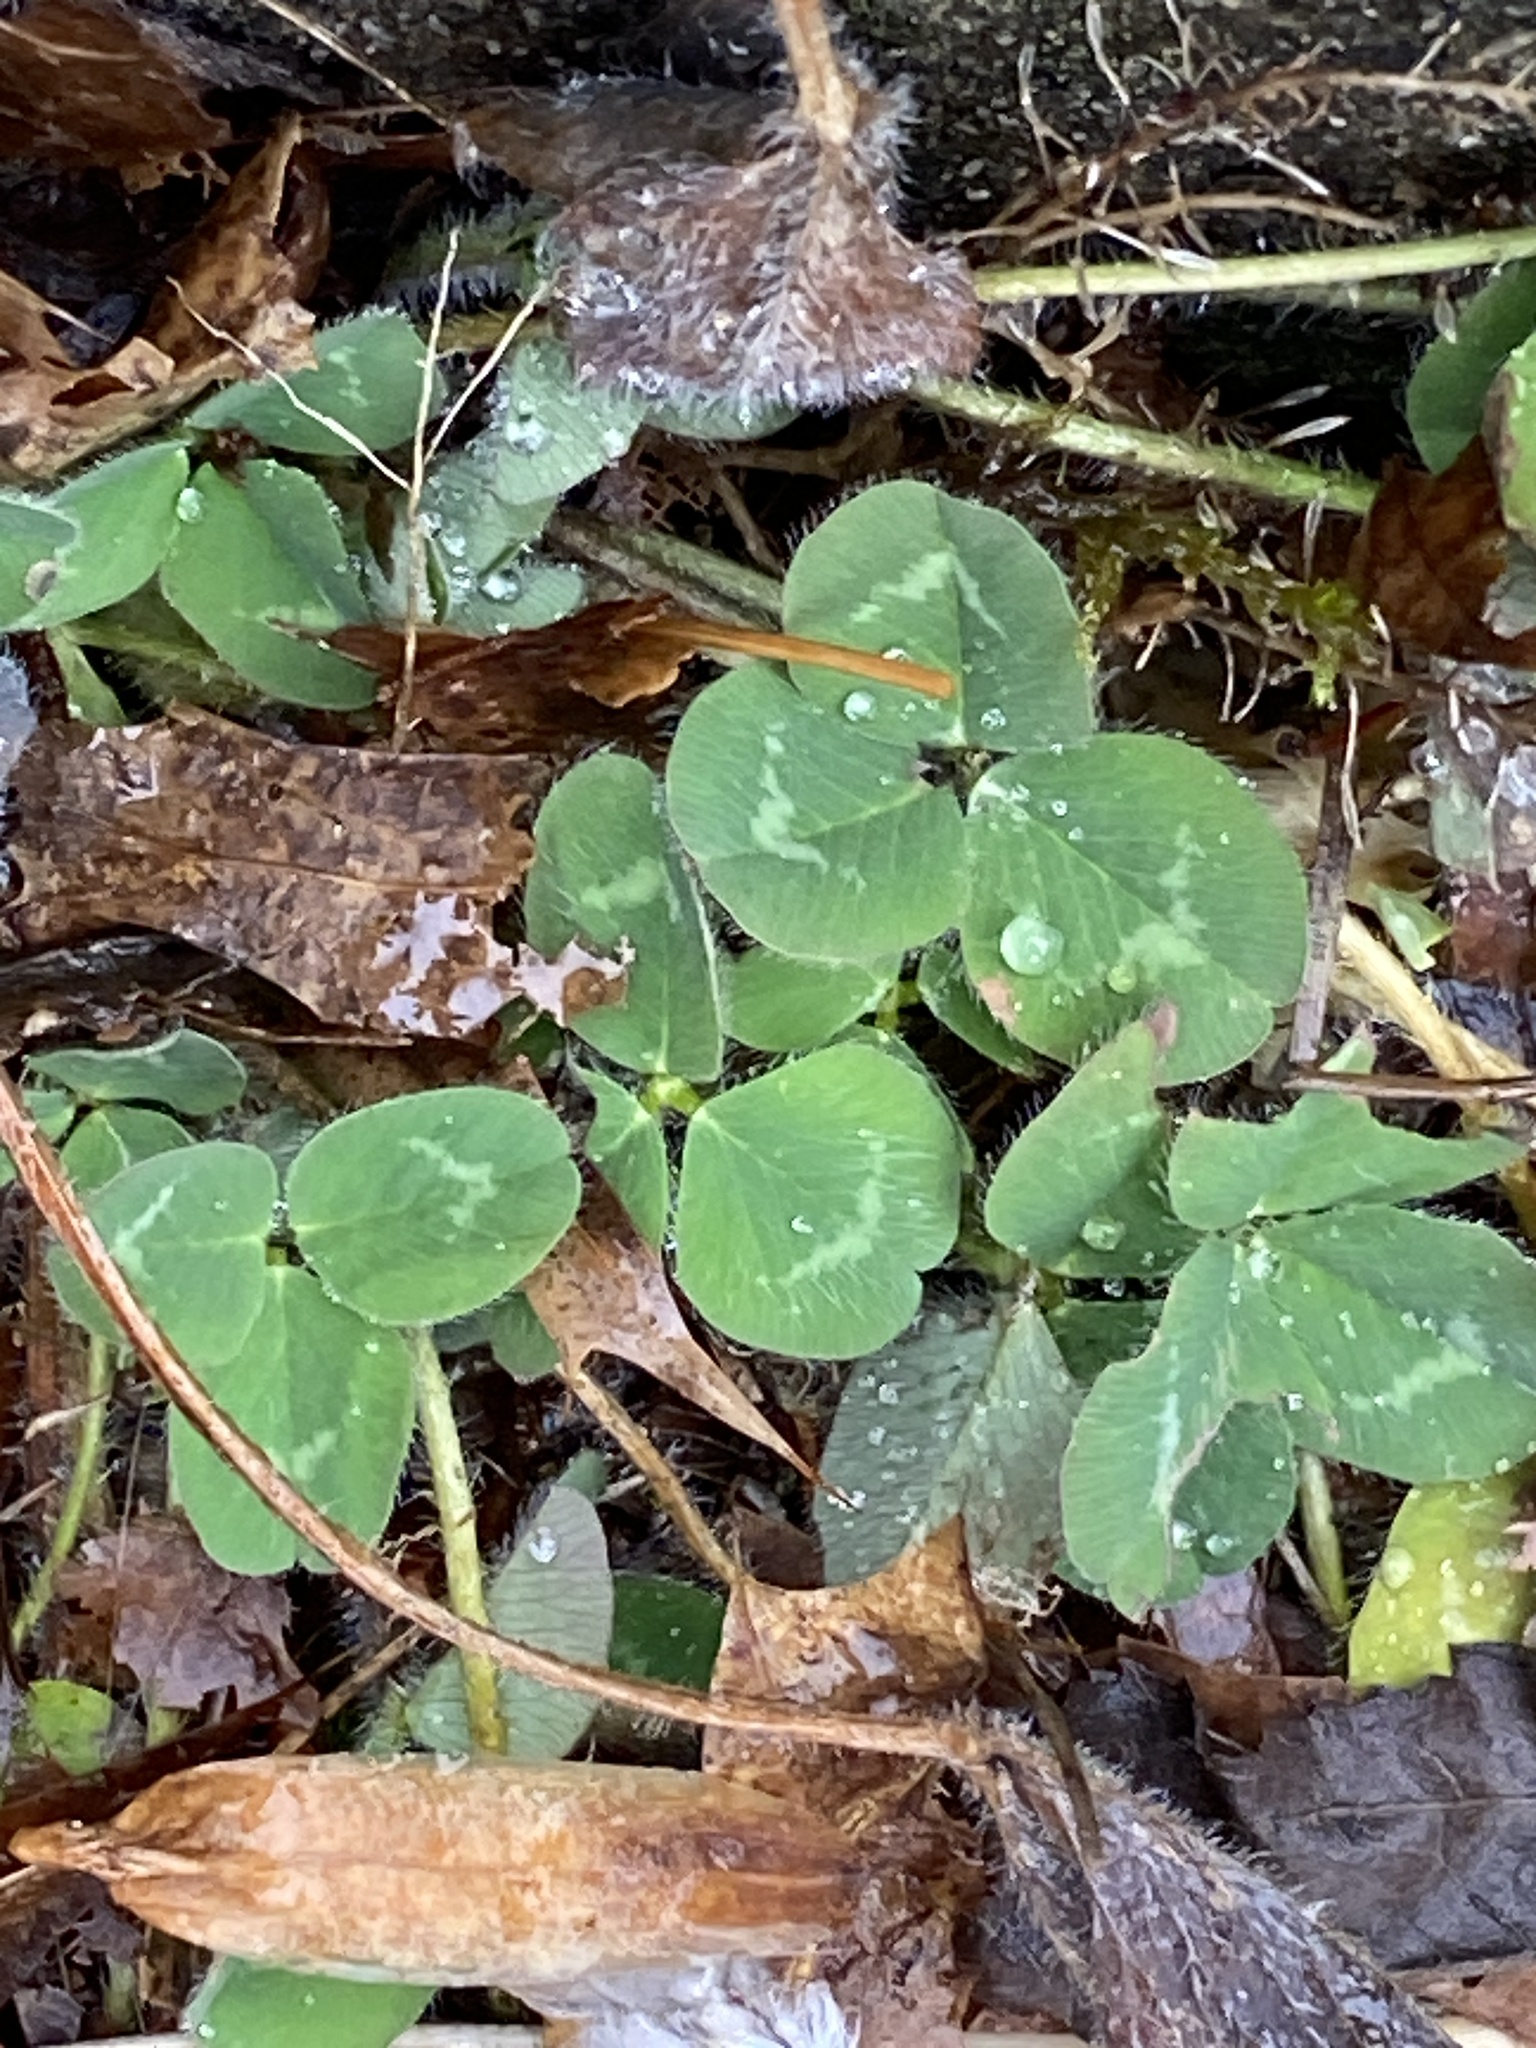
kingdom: Plantae
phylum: Tracheophyta
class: Magnoliopsida
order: Fabales
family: Fabaceae
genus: Trifolium
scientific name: Trifolium pratense
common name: Red clover
